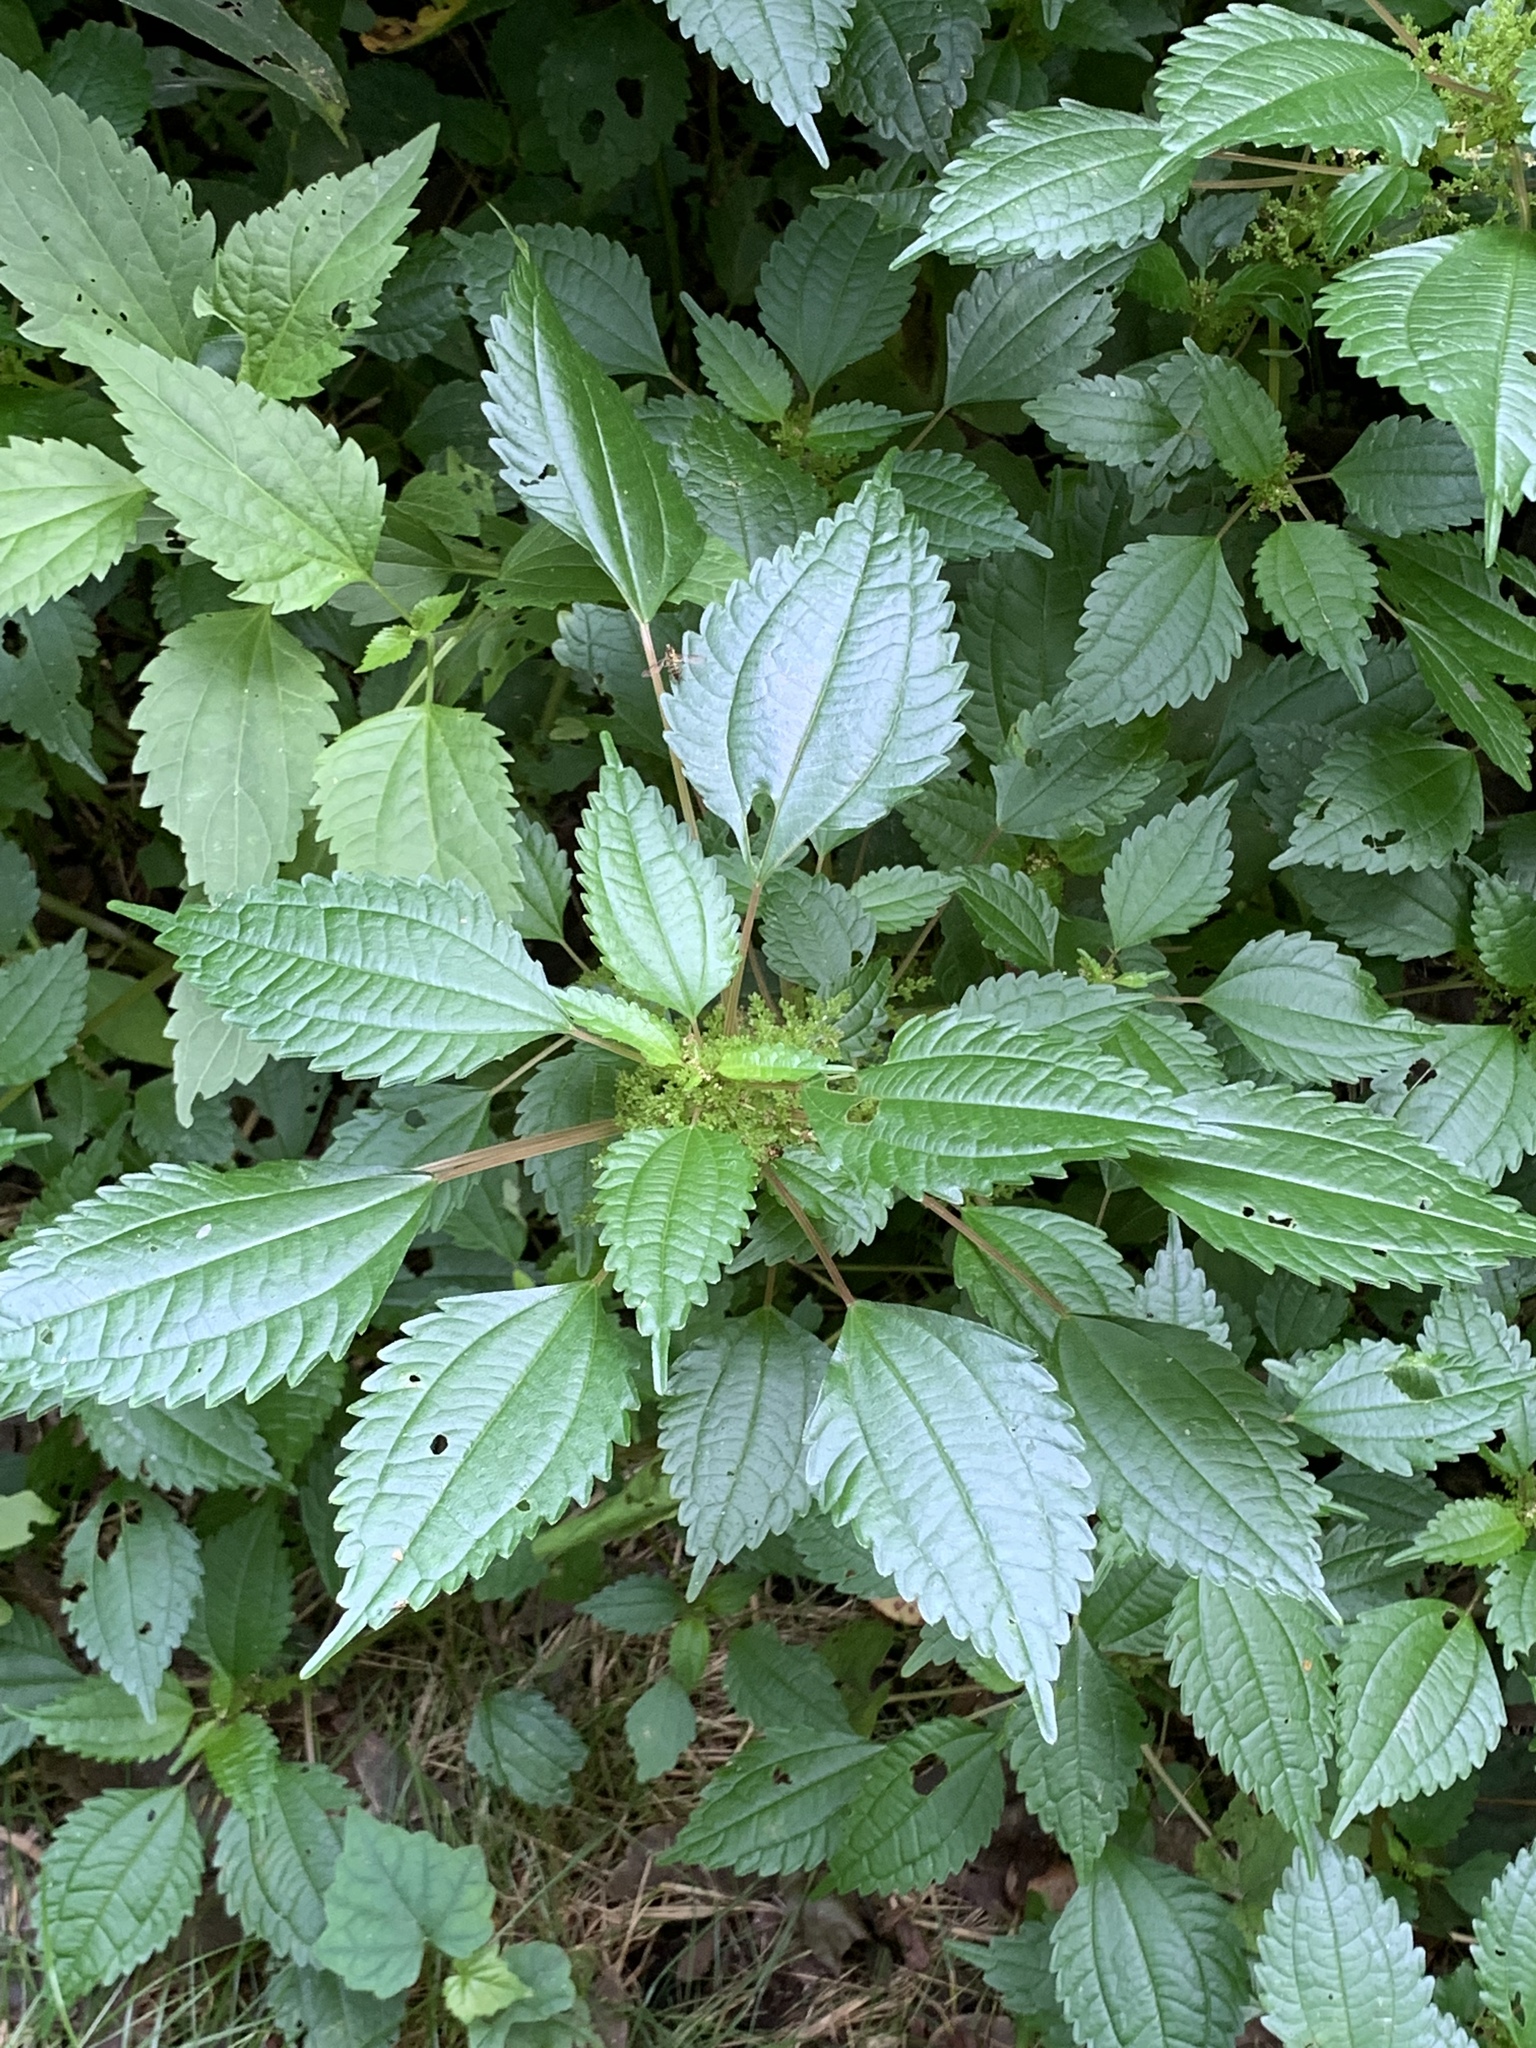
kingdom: Plantae
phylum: Tracheophyta
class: Magnoliopsida
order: Rosales
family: Urticaceae
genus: Pilea
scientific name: Pilea pumila
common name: Clearweed
